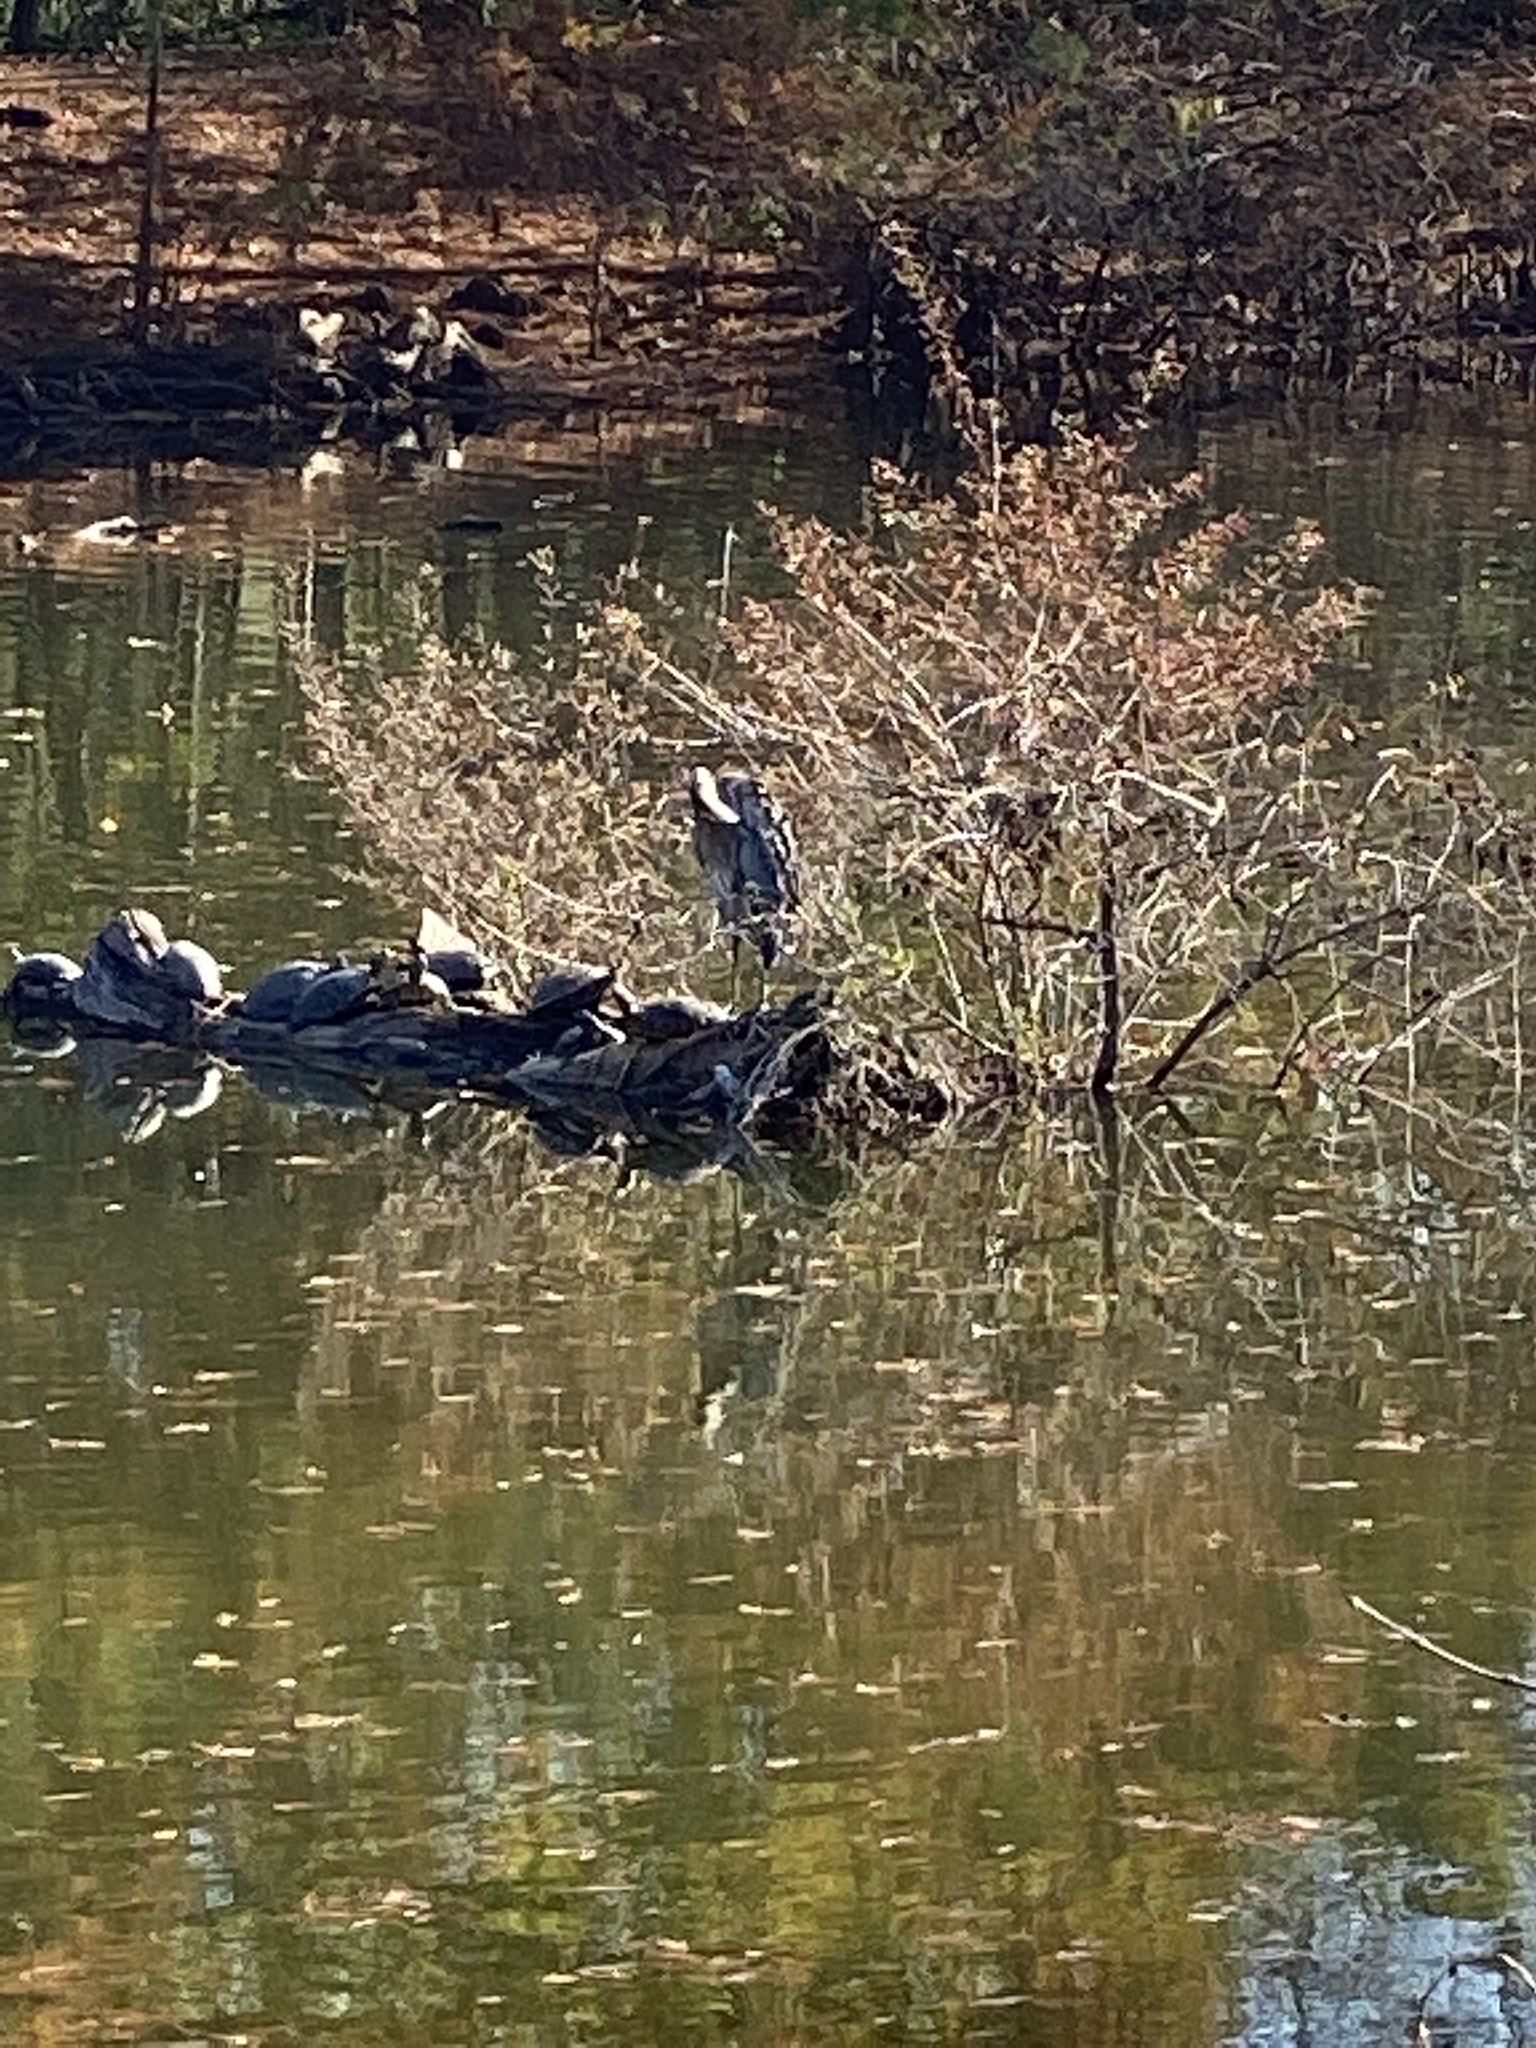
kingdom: Animalia
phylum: Chordata
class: Aves
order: Pelecaniformes
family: Ardeidae
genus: Ardea
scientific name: Ardea herodias
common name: Great blue heron
